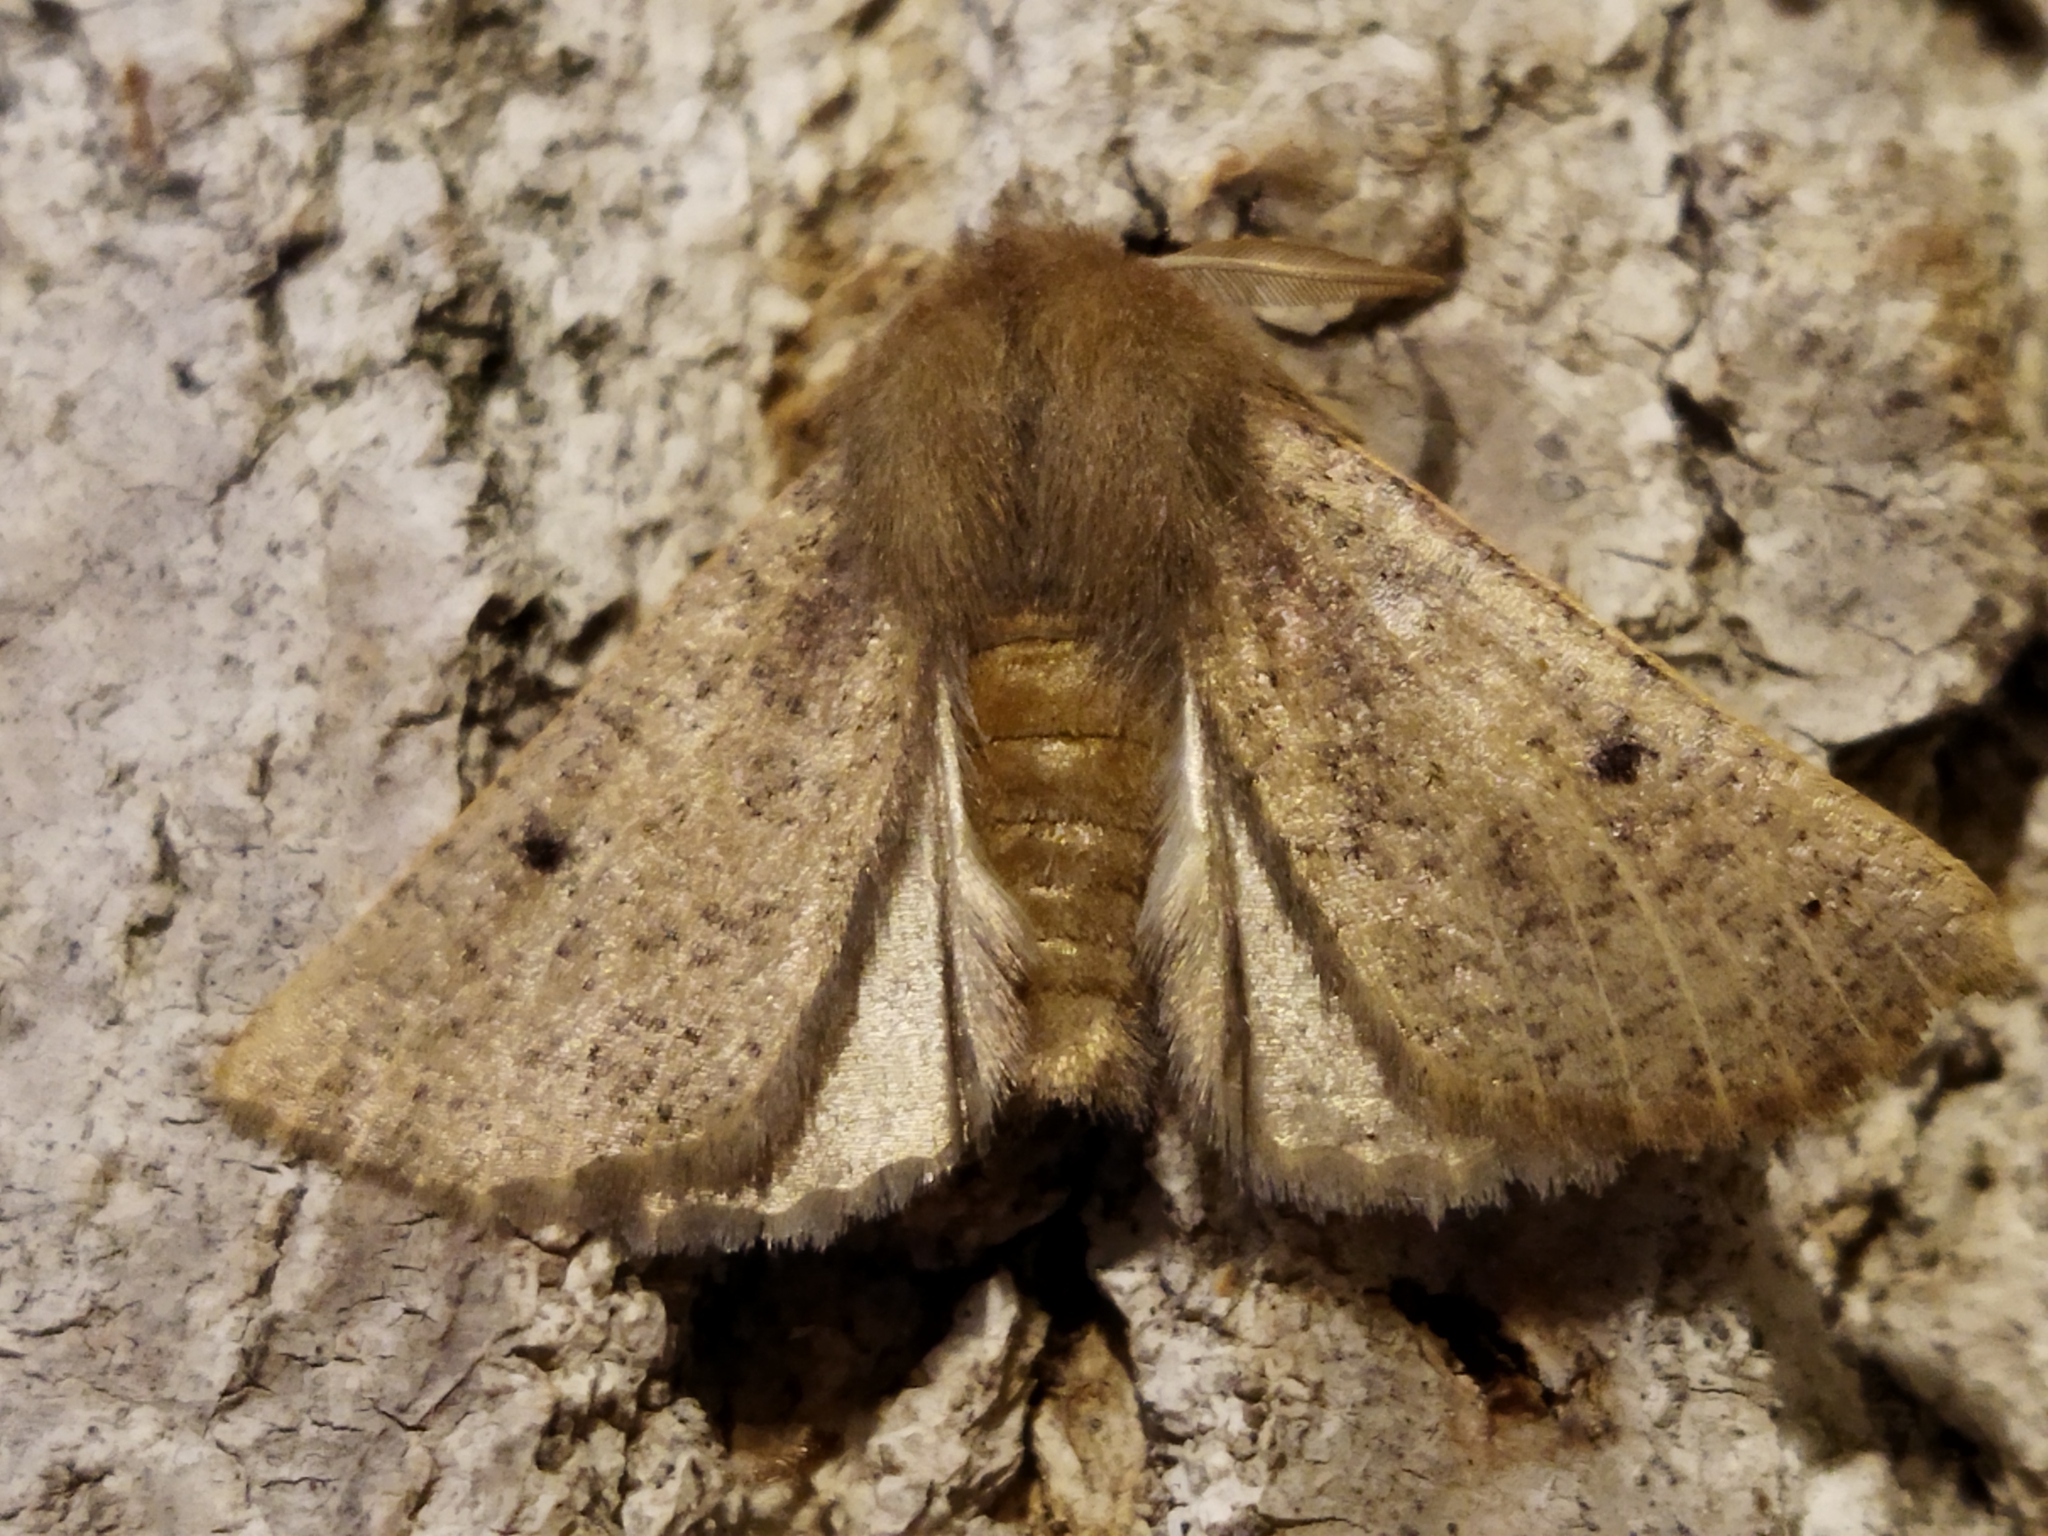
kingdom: Animalia
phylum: Arthropoda
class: Insecta
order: Lepidoptera
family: Geometridae
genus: Dasycorsa
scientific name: Dasycorsa modesta
